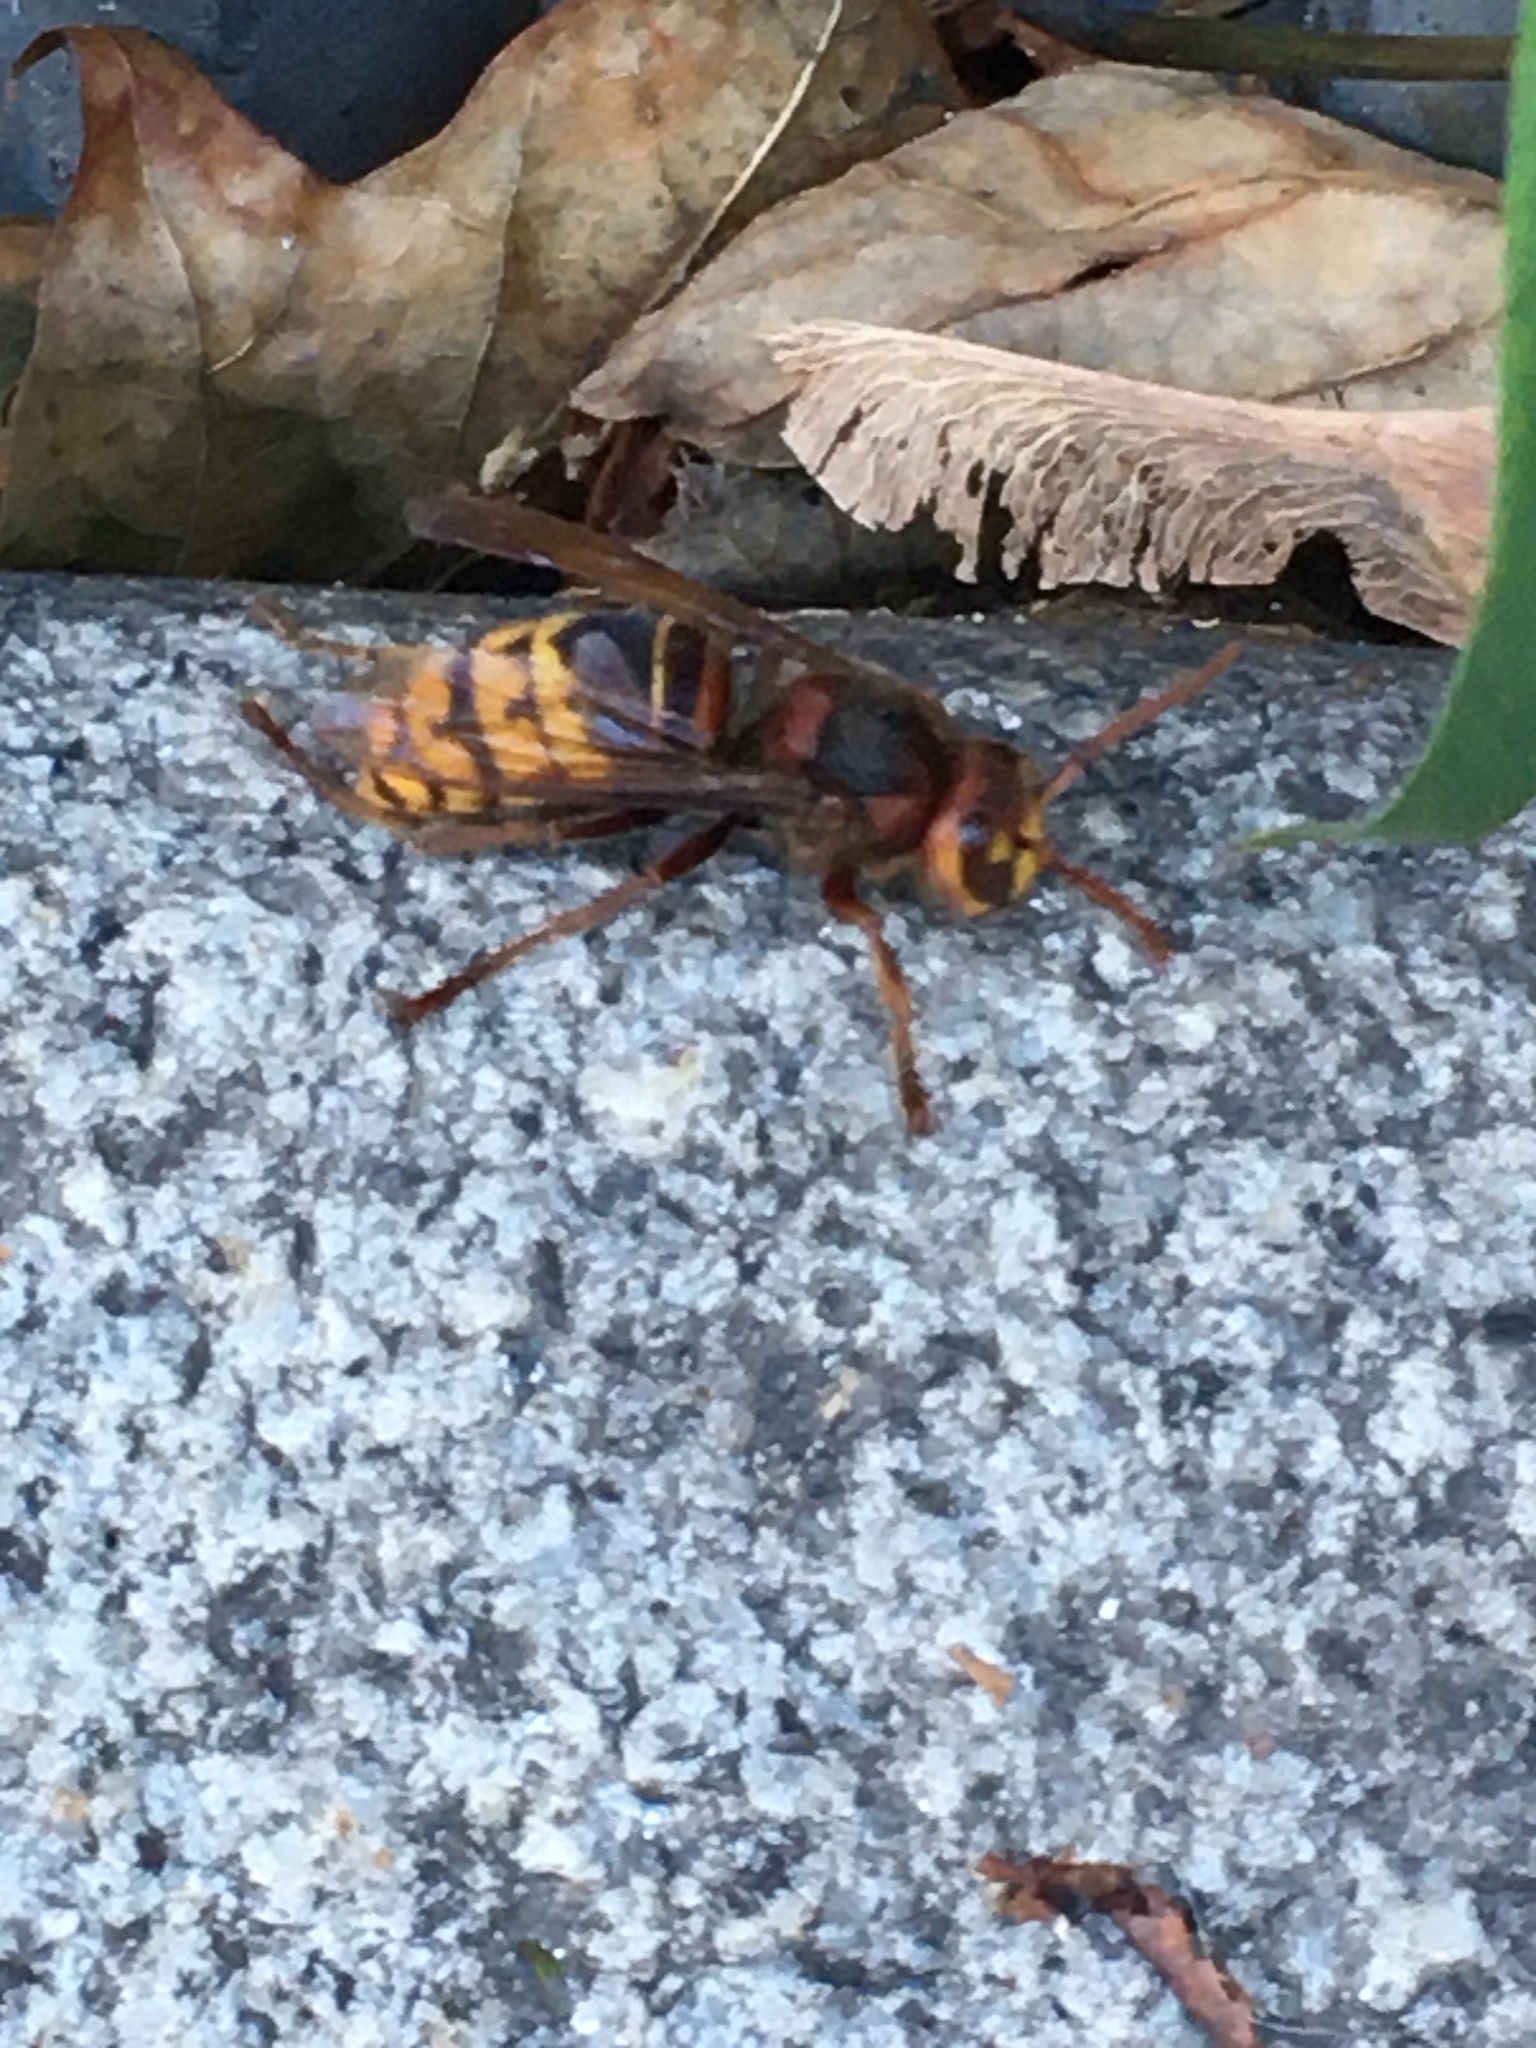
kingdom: Animalia
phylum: Arthropoda
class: Insecta
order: Hymenoptera
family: Vespidae
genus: Vespa
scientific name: Vespa crabro
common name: Hornet
